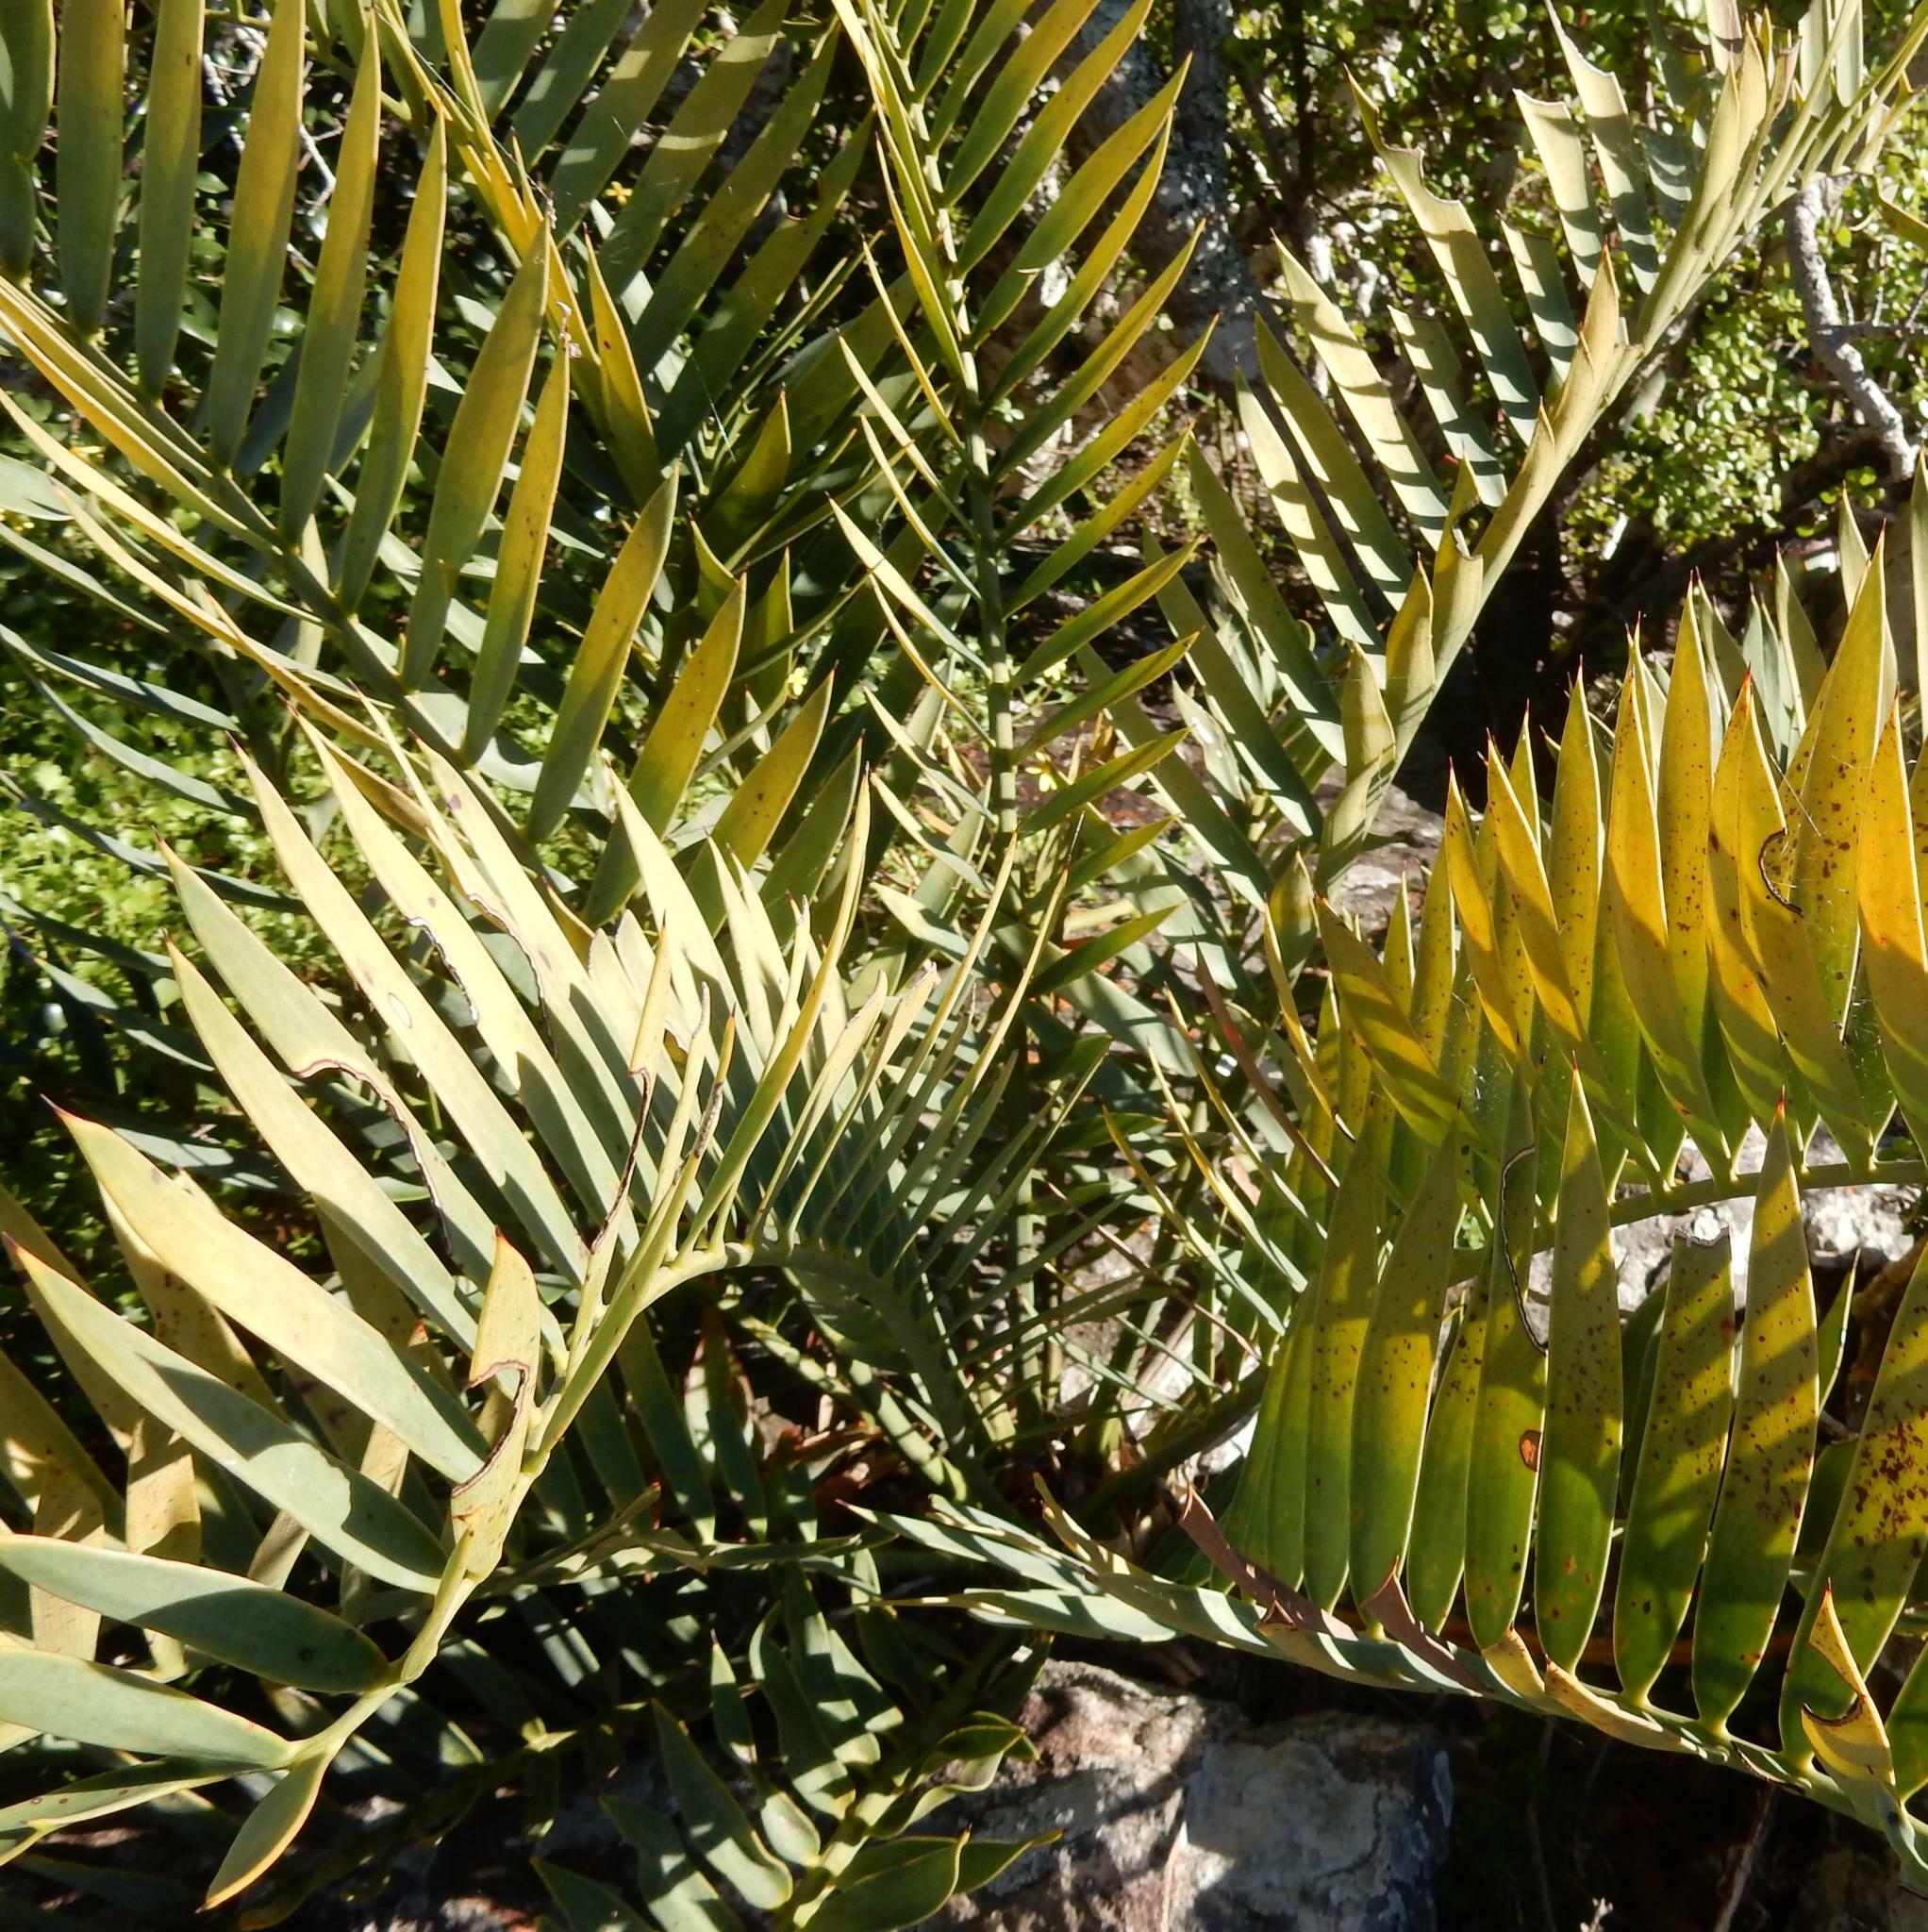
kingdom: Plantae
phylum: Tracheophyta
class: Cycadopsida
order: Cycadales
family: Zamiaceae
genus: Encephalartos
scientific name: Encephalartos trispinosus
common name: Bushman's river cycad
